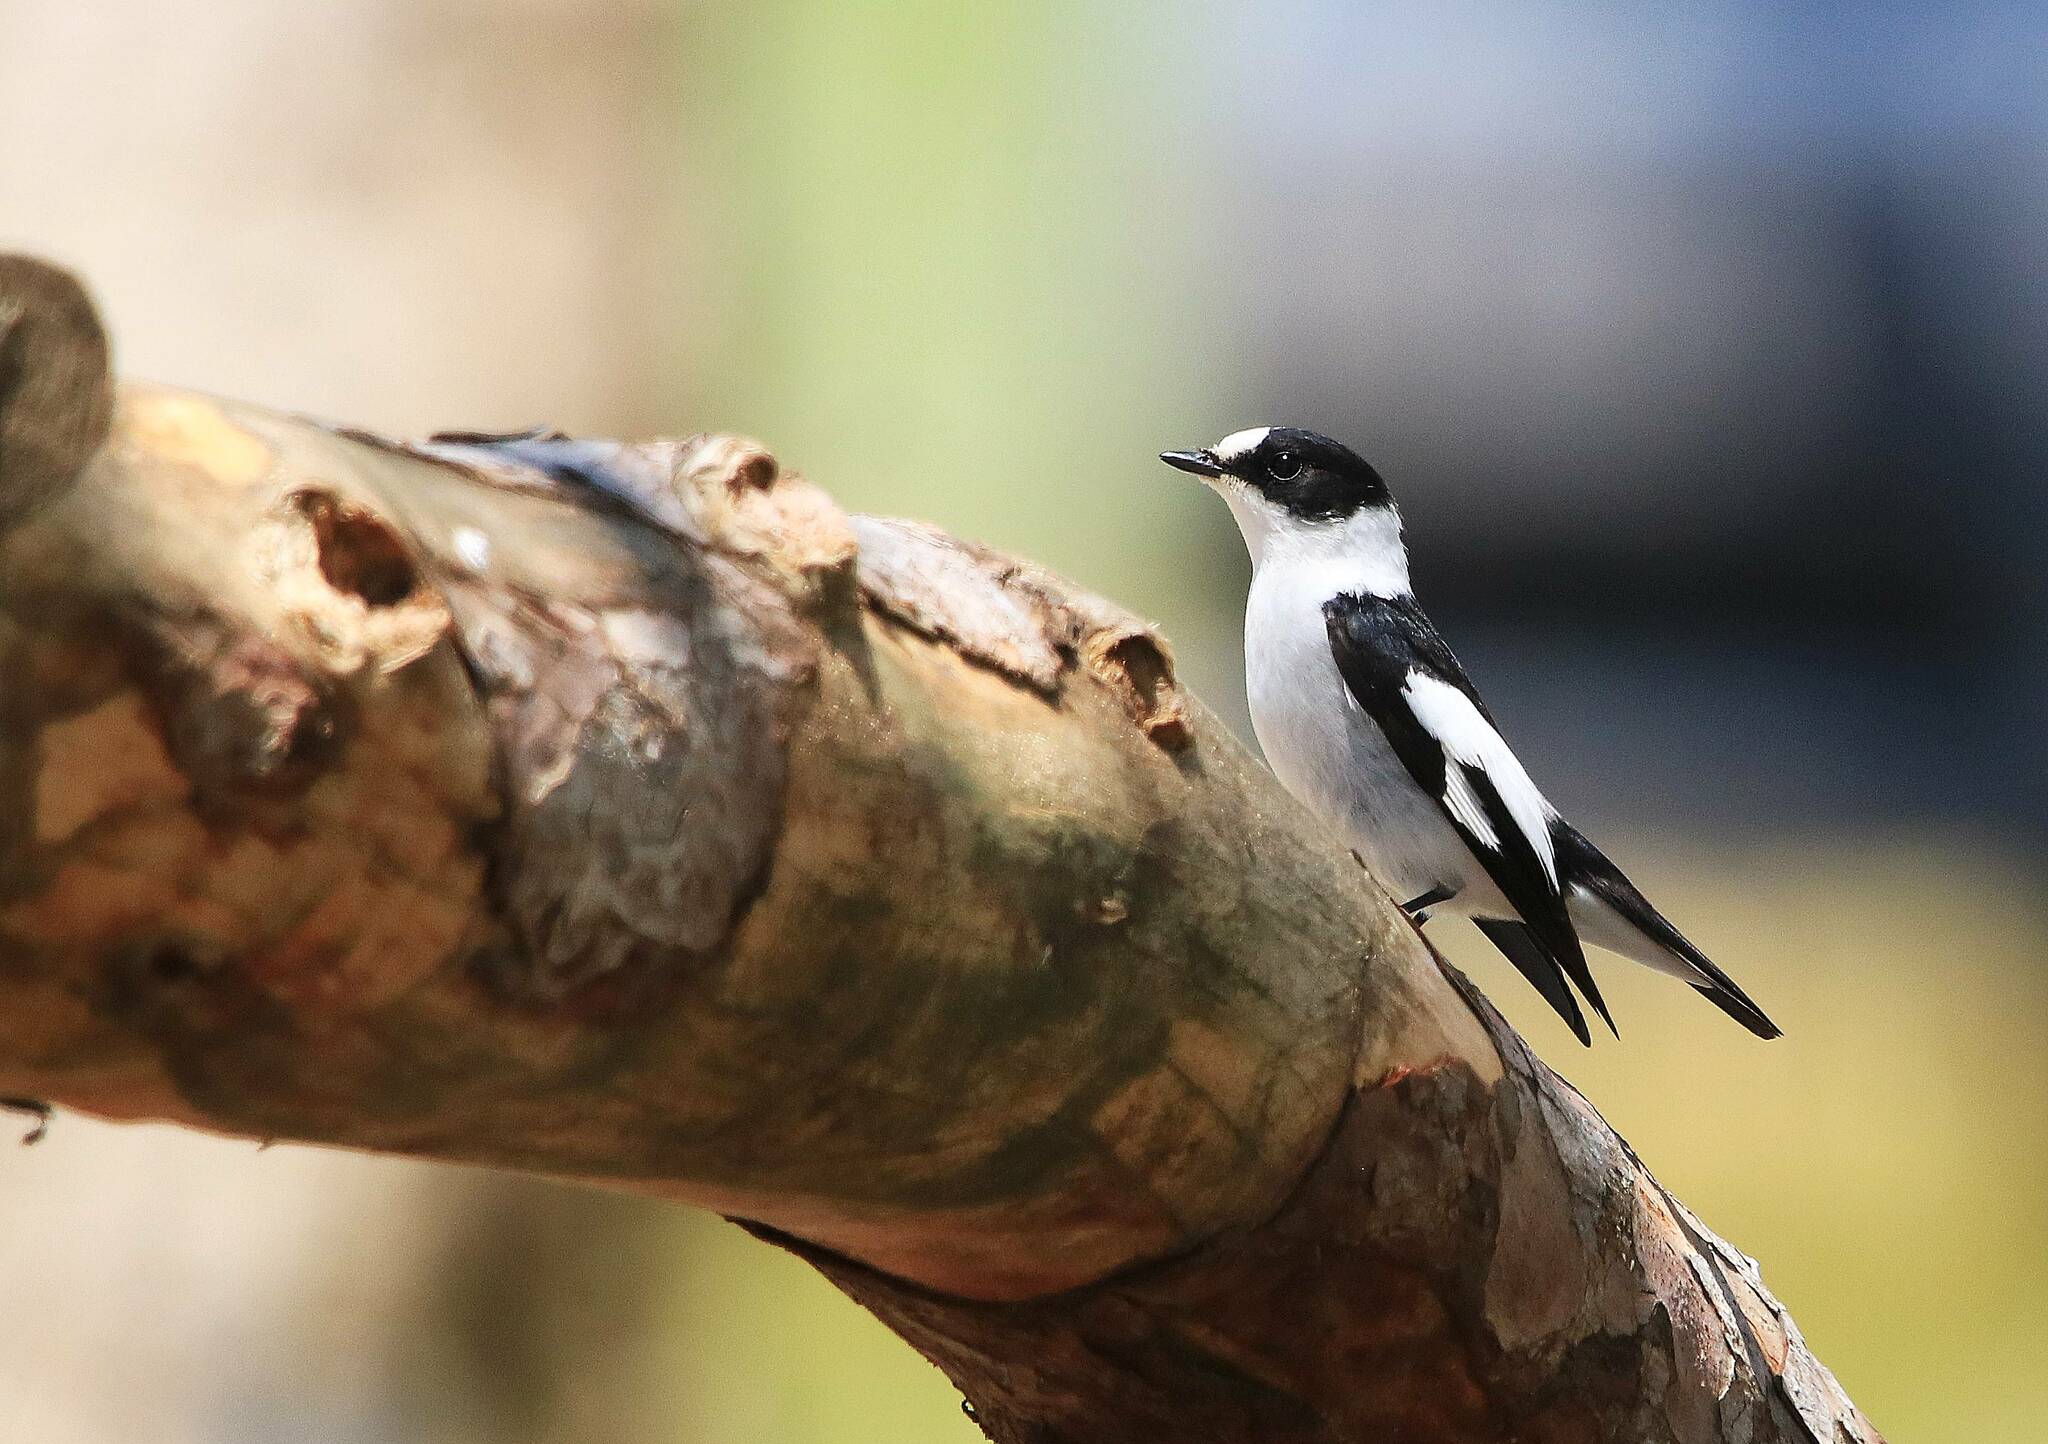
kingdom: Animalia
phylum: Chordata
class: Aves
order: Passeriformes
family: Muscicapidae
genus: Ficedula
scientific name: Ficedula albicollis
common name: Collared flycatcher
